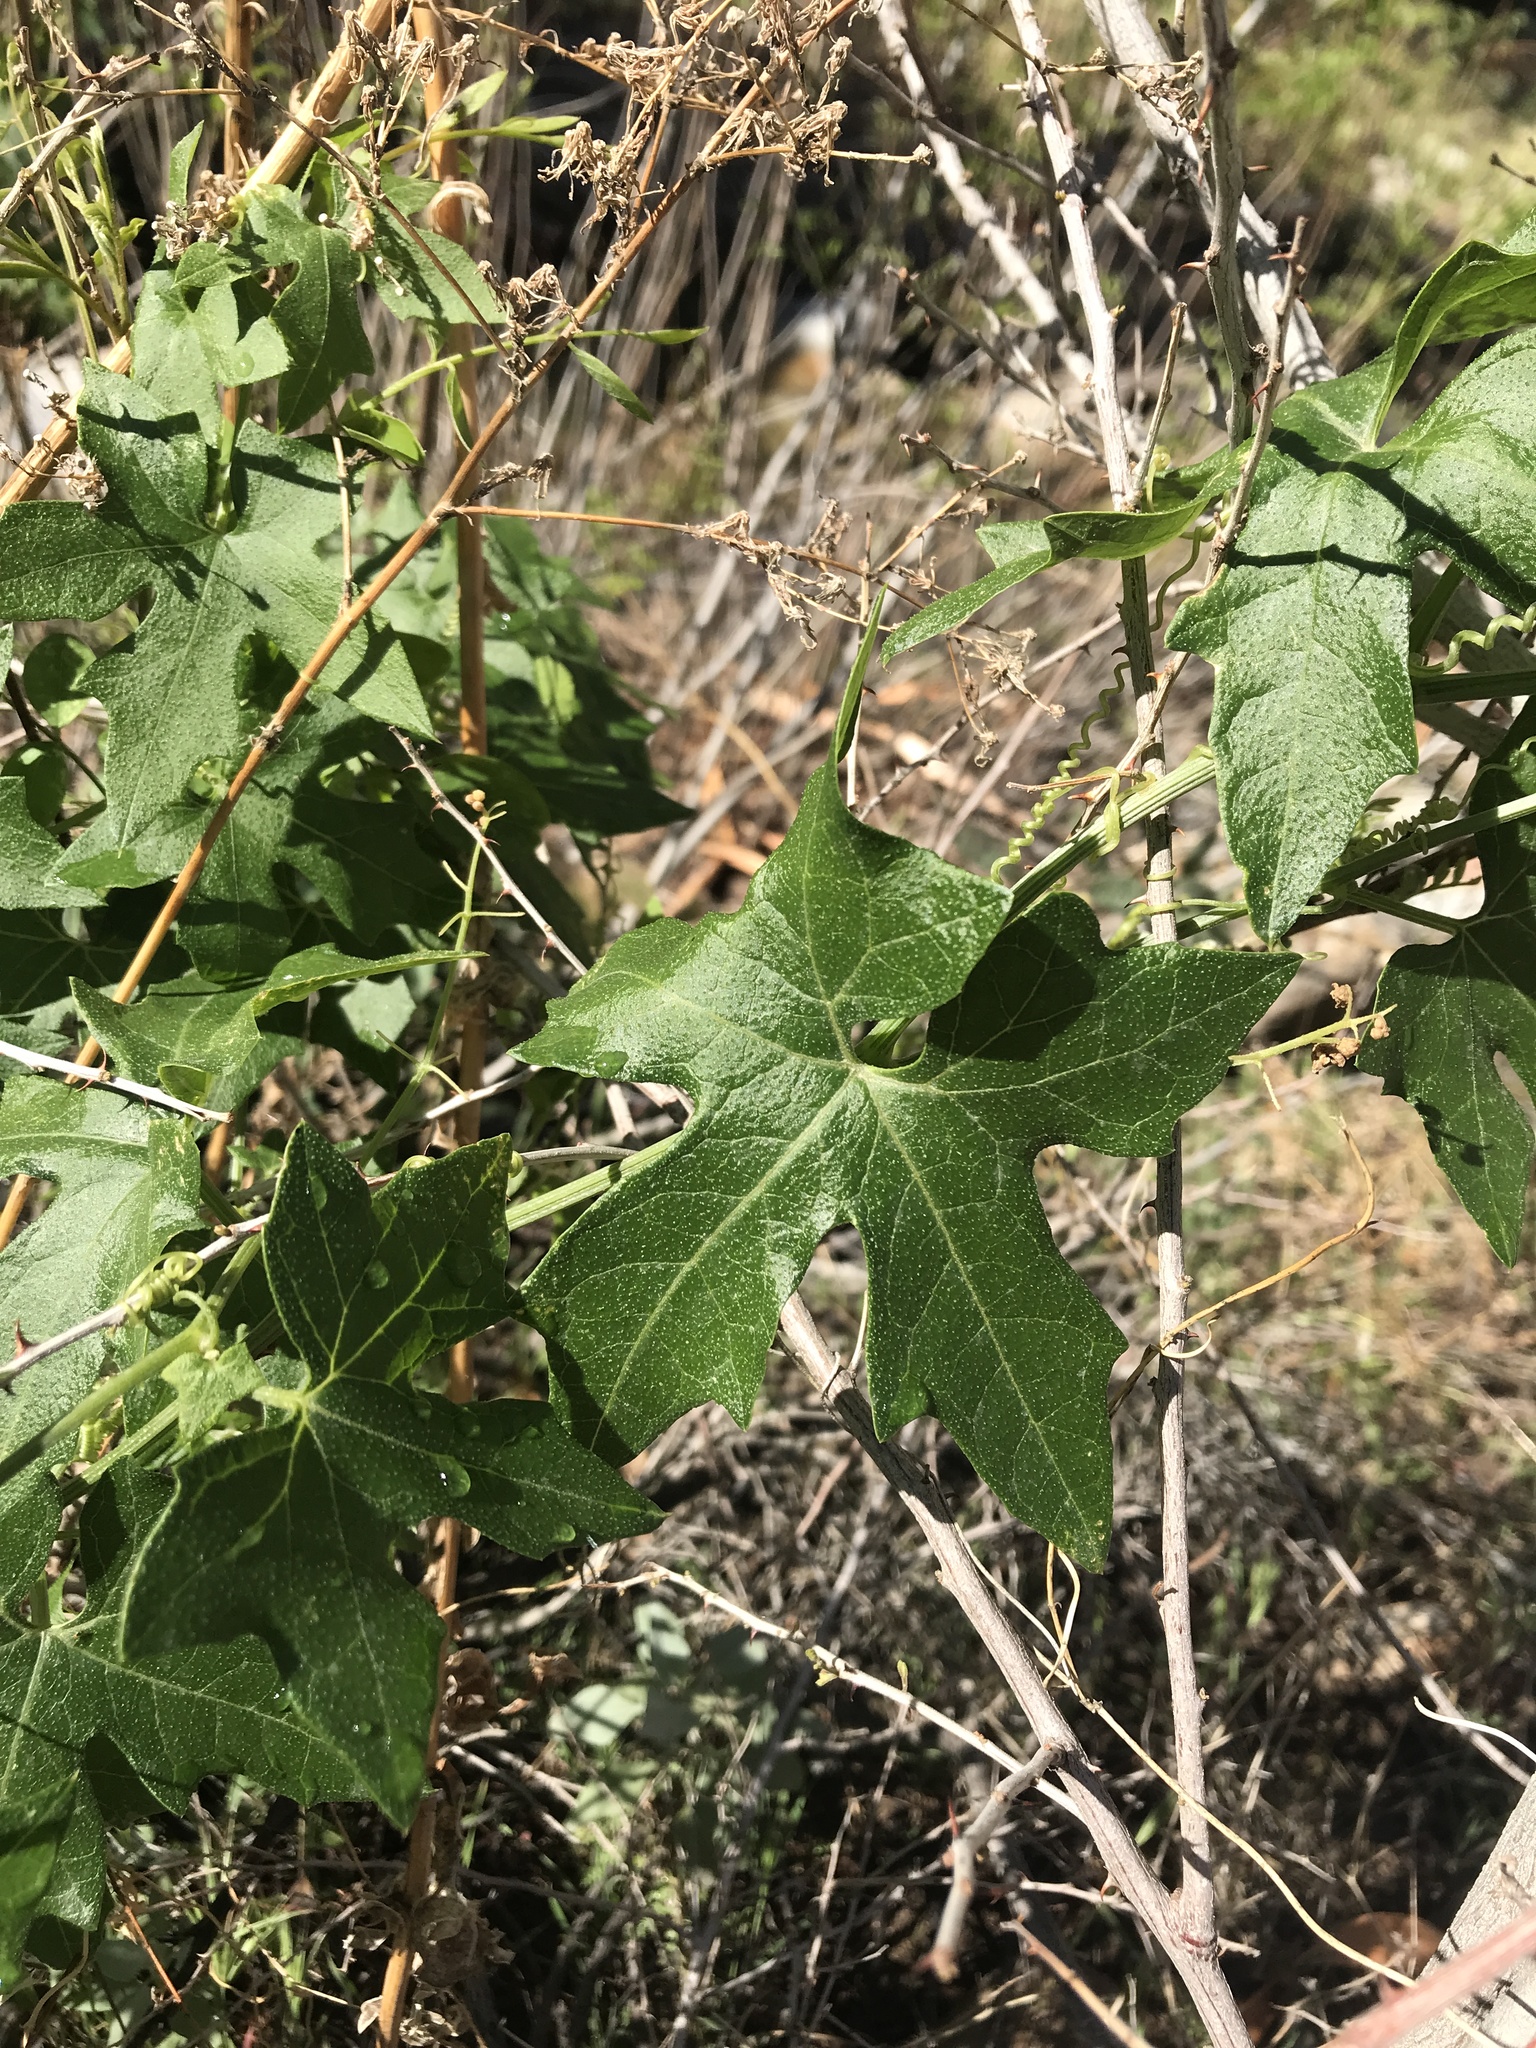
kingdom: Plantae
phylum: Tracheophyta
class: Magnoliopsida
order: Cucurbitales
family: Cucurbitaceae
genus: Marah
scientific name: Marah macrocarpa
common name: Cucamonga manroot
